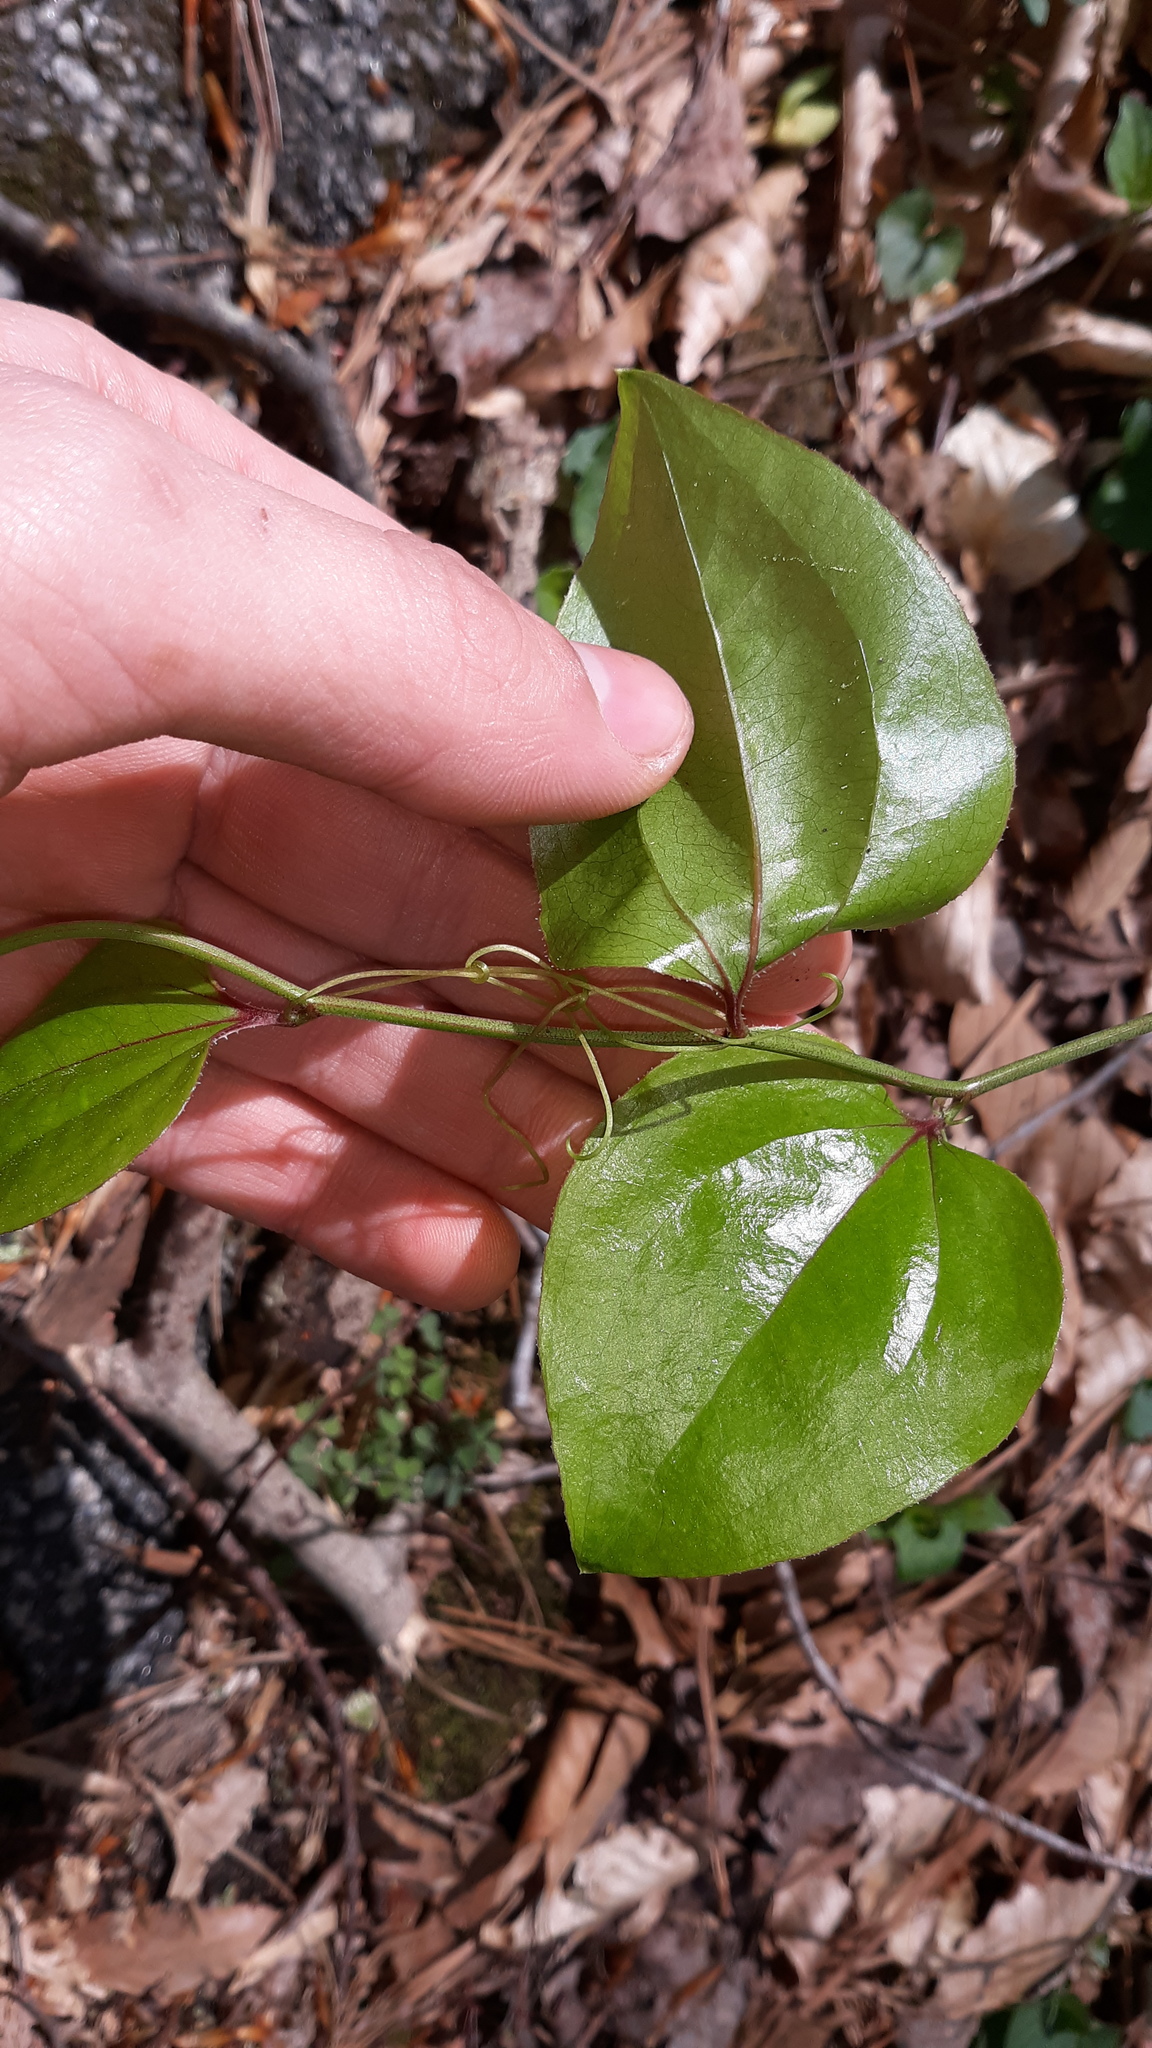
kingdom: Plantae
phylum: Tracheophyta
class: Liliopsida
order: Liliales
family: Smilacaceae
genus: Smilax
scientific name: Smilax rotundifolia
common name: Bullbriar
